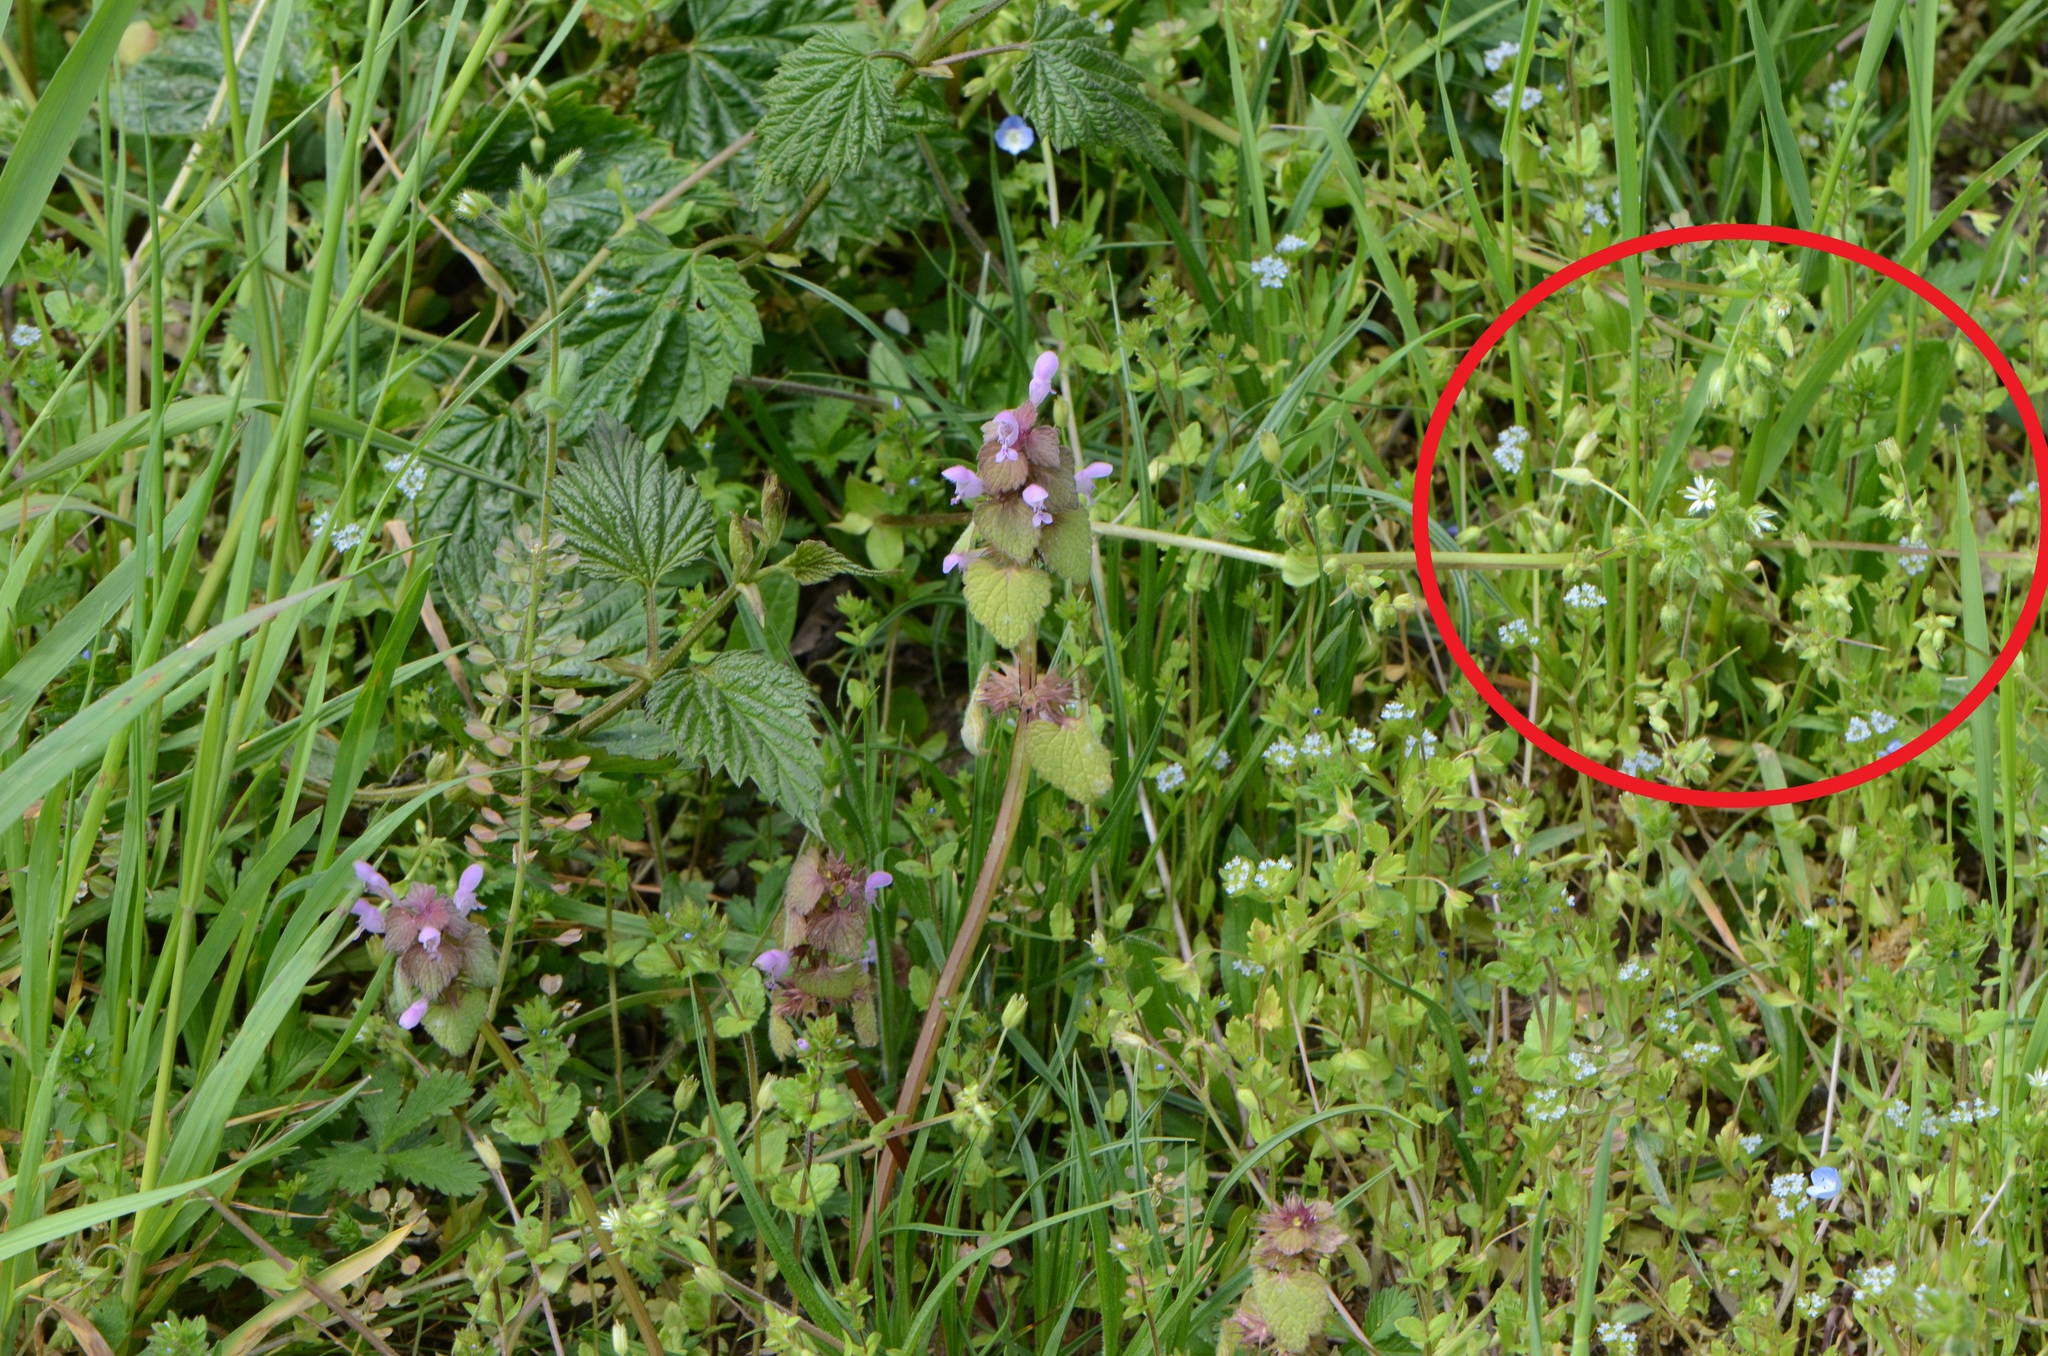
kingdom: Plantae
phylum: Tracheophyta
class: Magnoliopsida
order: Caryophyllales
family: Caryophyllaceae
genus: Stellaria
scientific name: Stellaria
